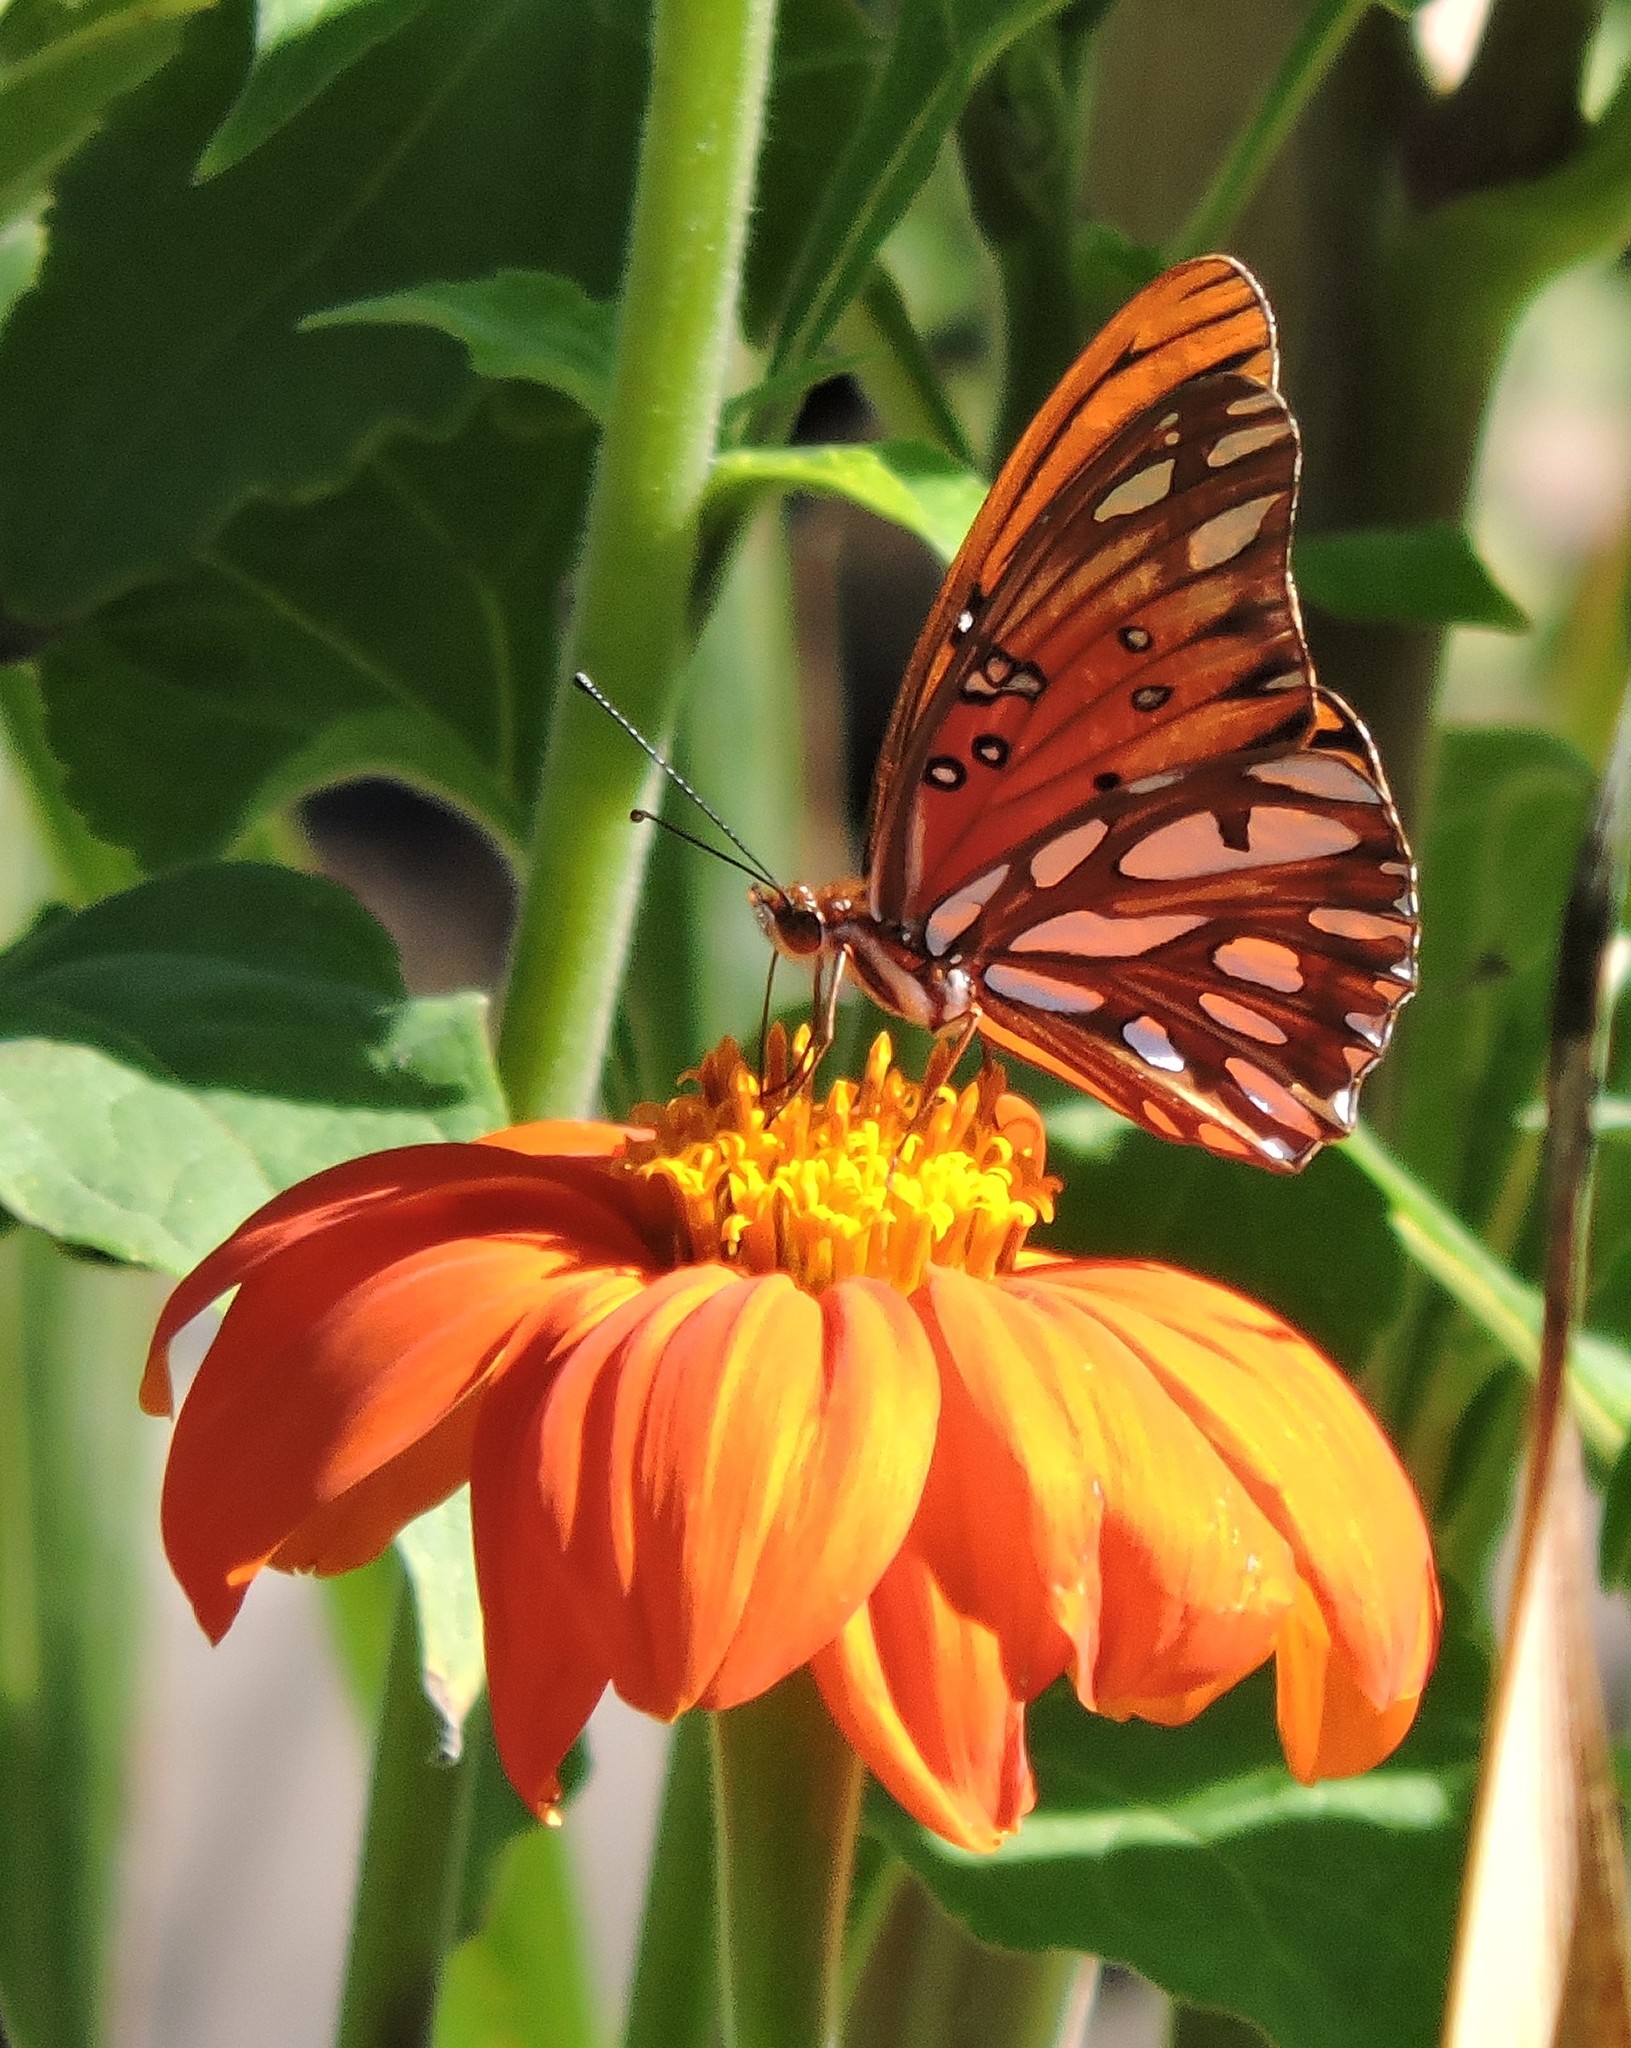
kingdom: Animalia
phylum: Arthropoda
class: Insecta
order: Lepidoptera
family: Nymphalidae
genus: Dione
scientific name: Dione vanillae
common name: Gulf fritillary
